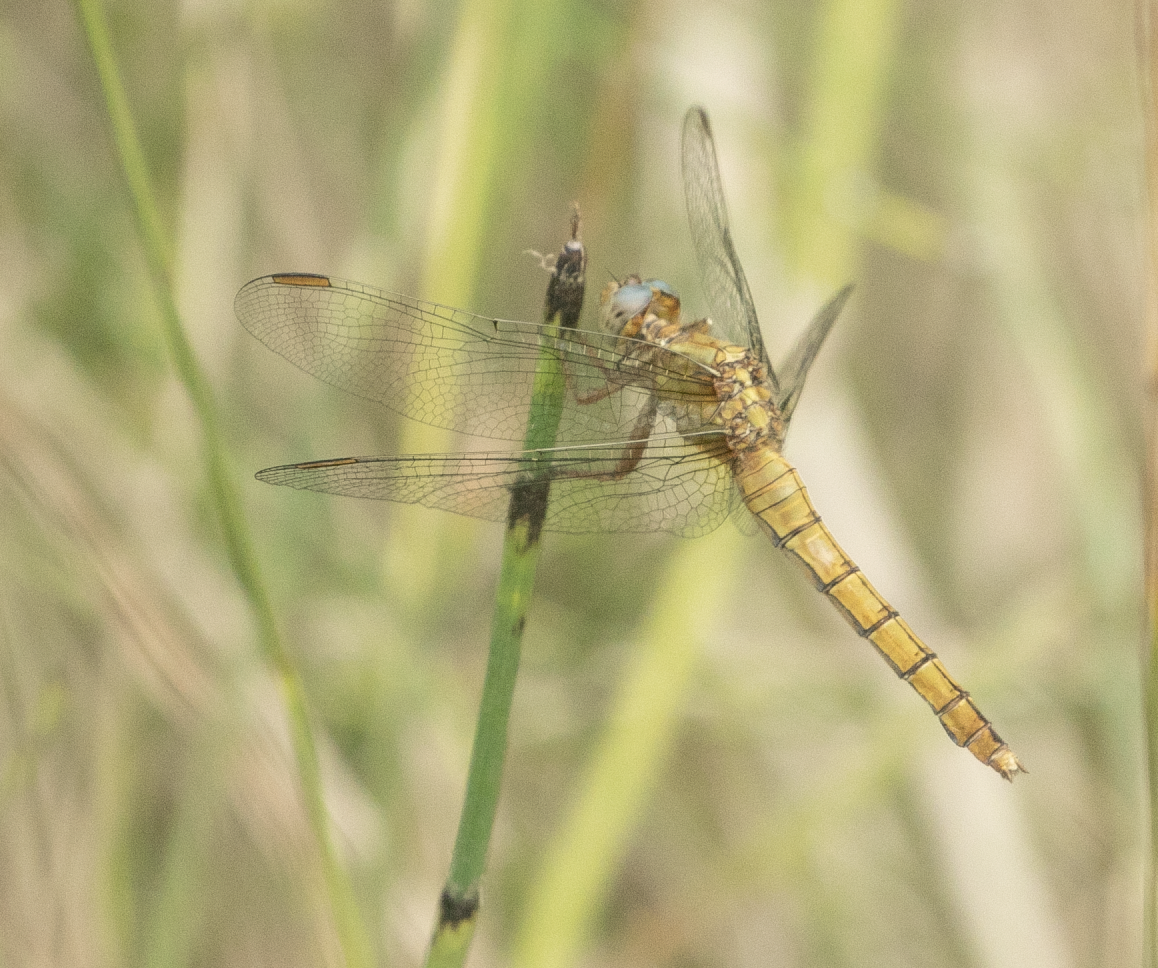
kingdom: Animalia
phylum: Arthropoda
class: Insecta
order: Odonata
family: Libellulidae
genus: Orthetrum
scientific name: Orthetrum coerulescens
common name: Keeled skimmer
